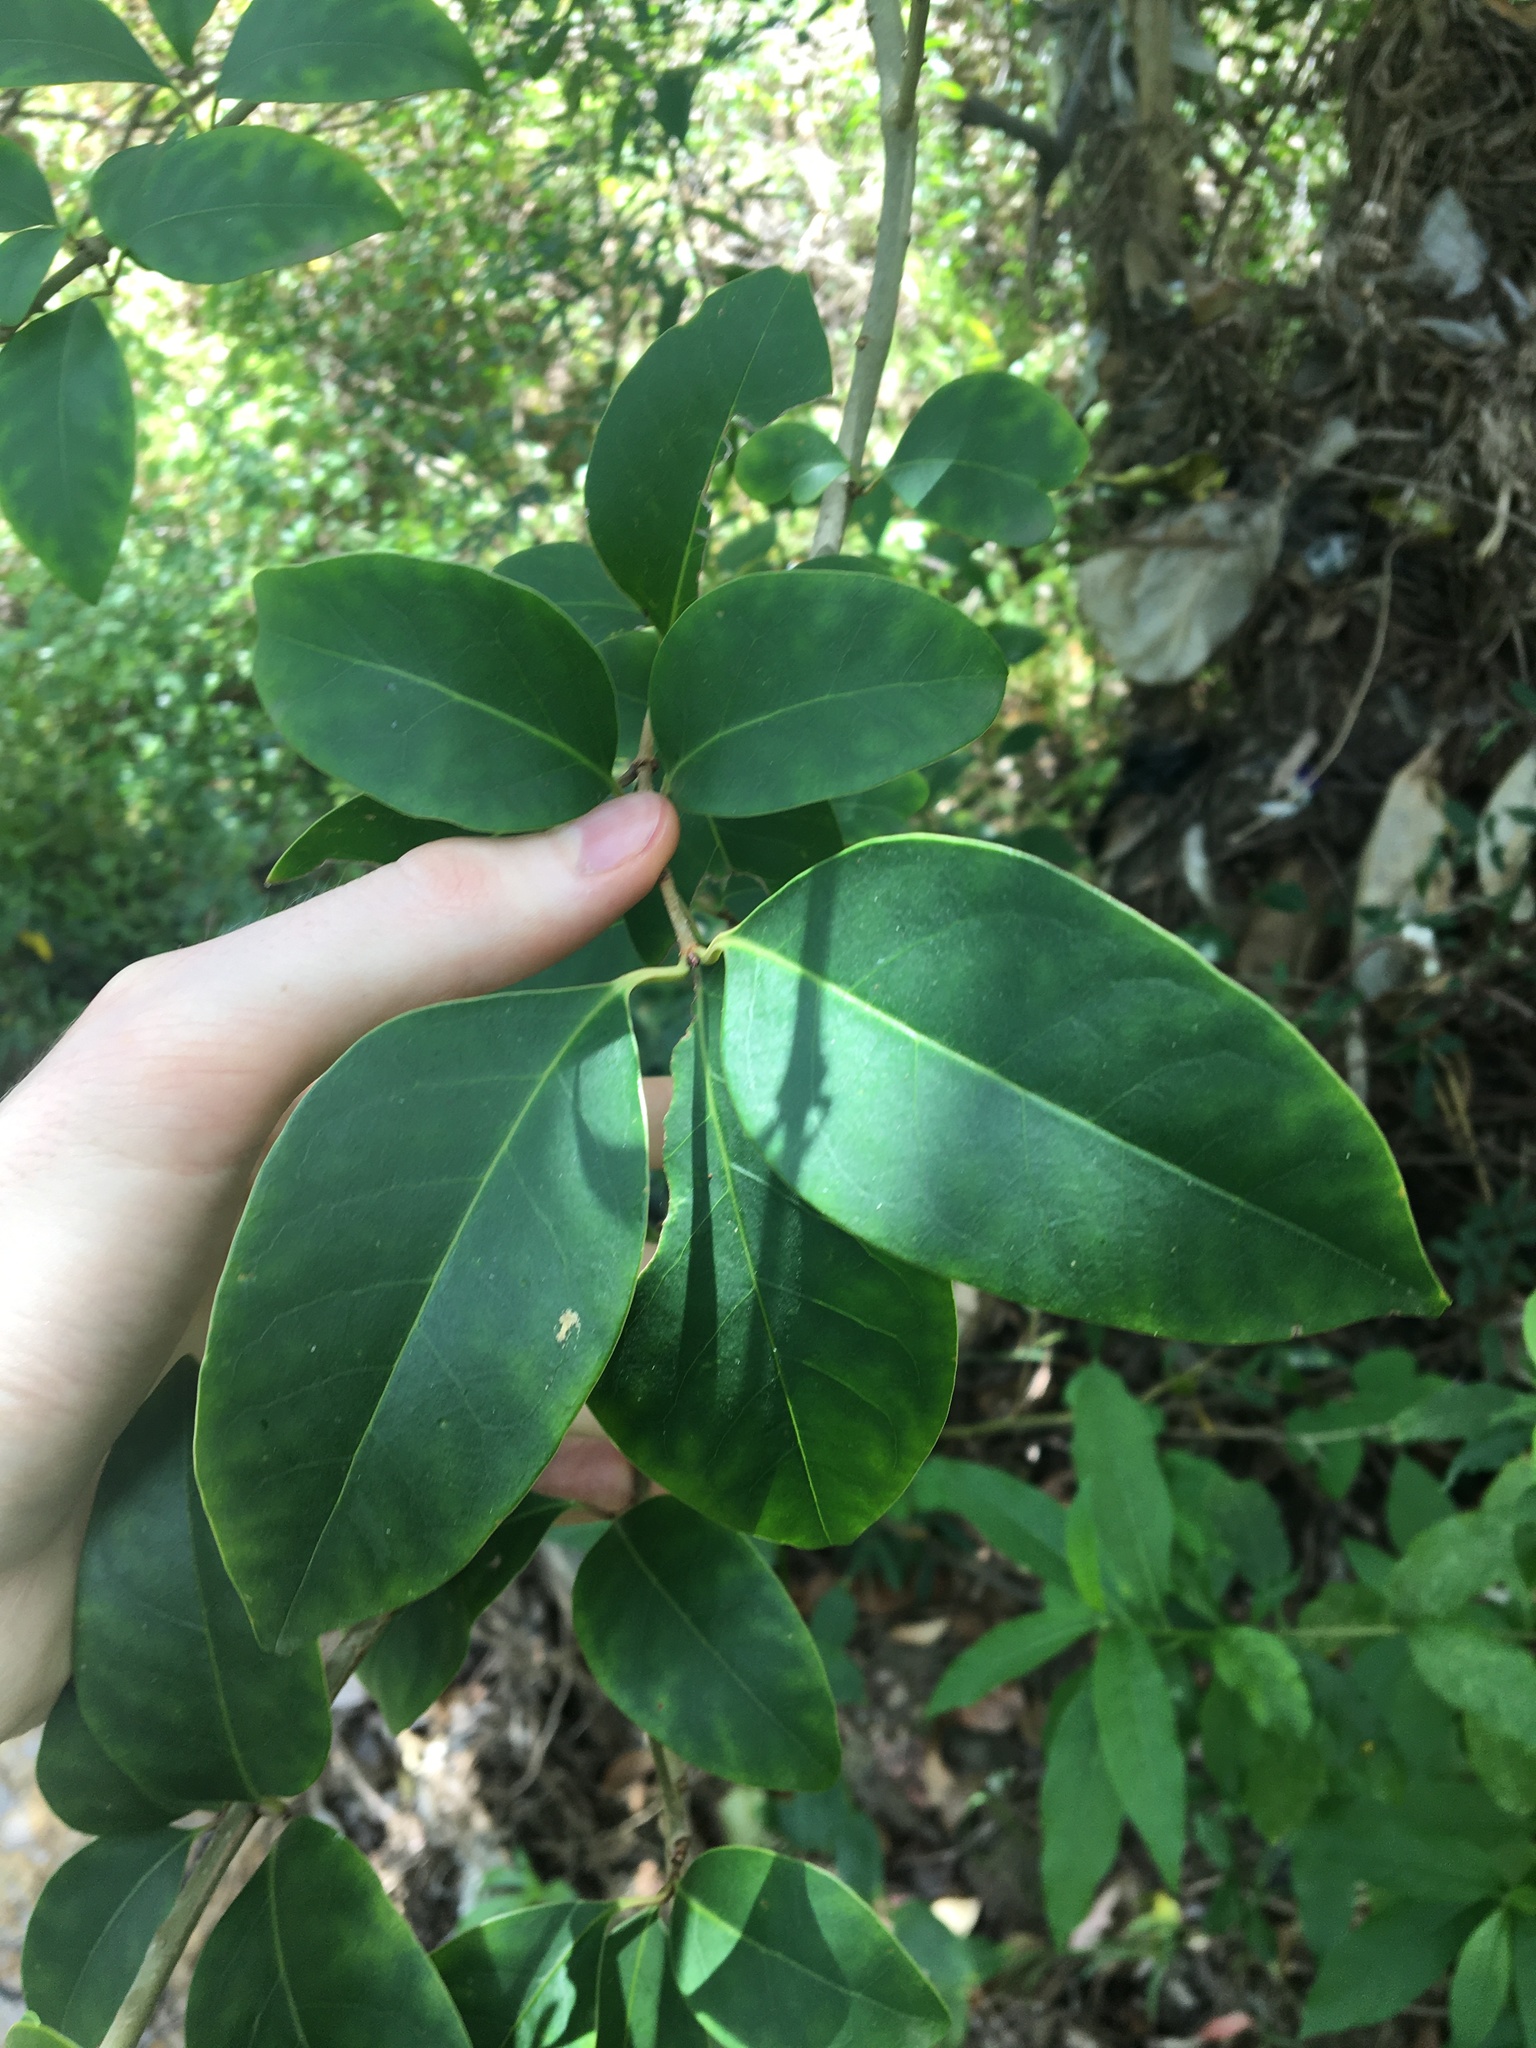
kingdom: Plantae
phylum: Tracheophyta
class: Magnoliopsida
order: Lamiales
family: Oleaceae
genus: Ligustrum
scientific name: Ligustrum lucidum
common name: Glossy privet
